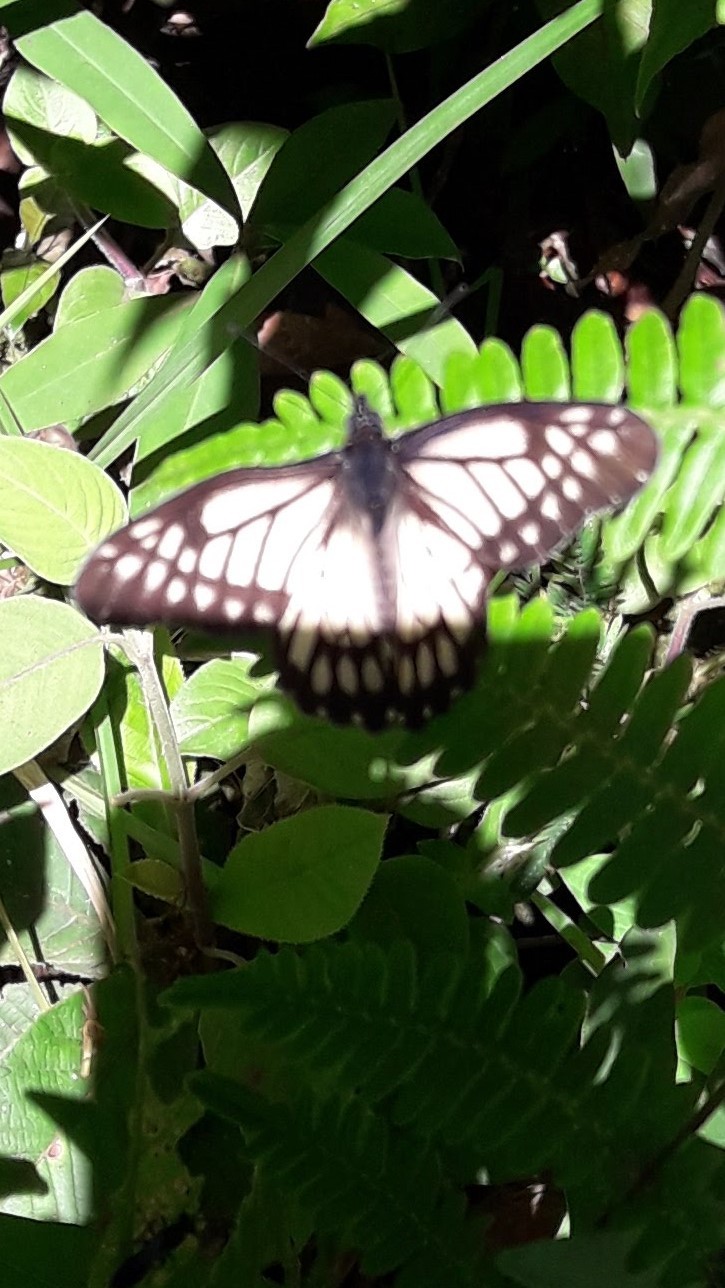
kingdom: Animalia
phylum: Arthropoda
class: Insecta
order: Lepidoptera
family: Pieridae
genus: Archonias
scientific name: Archonias nimbice
